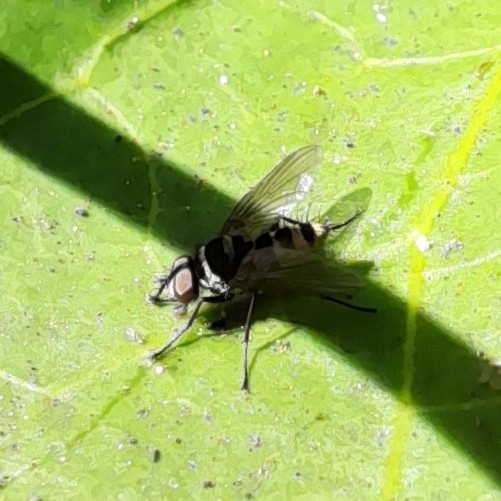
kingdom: Animalia
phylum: Arthropoda
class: Insecta
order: Diptera
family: Tachinidae
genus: Trigonospila
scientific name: Trigonospila brevifacies
